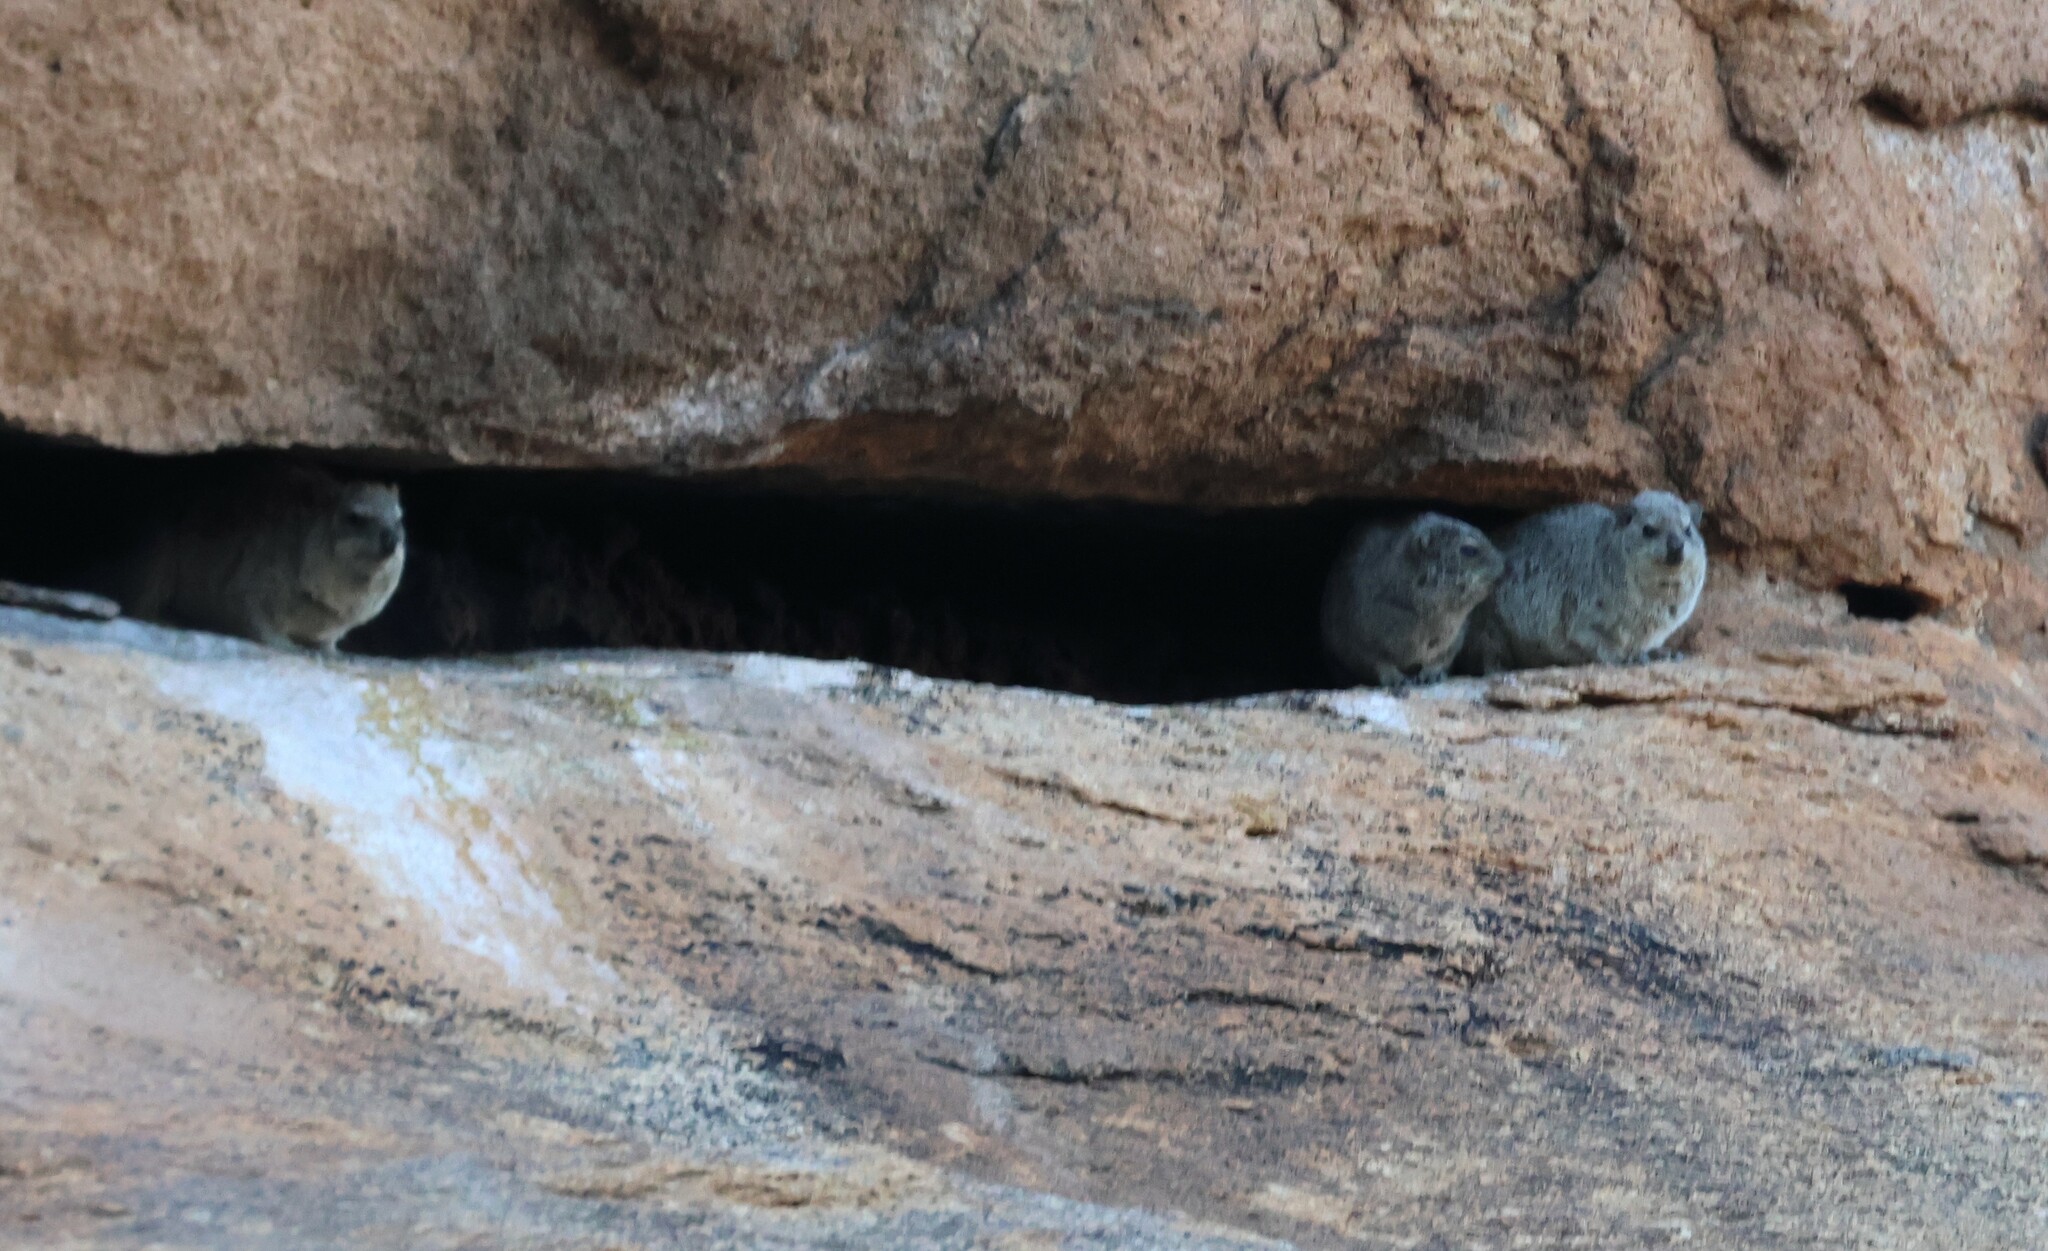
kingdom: Animalia
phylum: Chordata
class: Mammalia
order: Hyracoidea
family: Procaviidae
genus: Procavia
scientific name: Procavia capensis
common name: Rock hyrax
